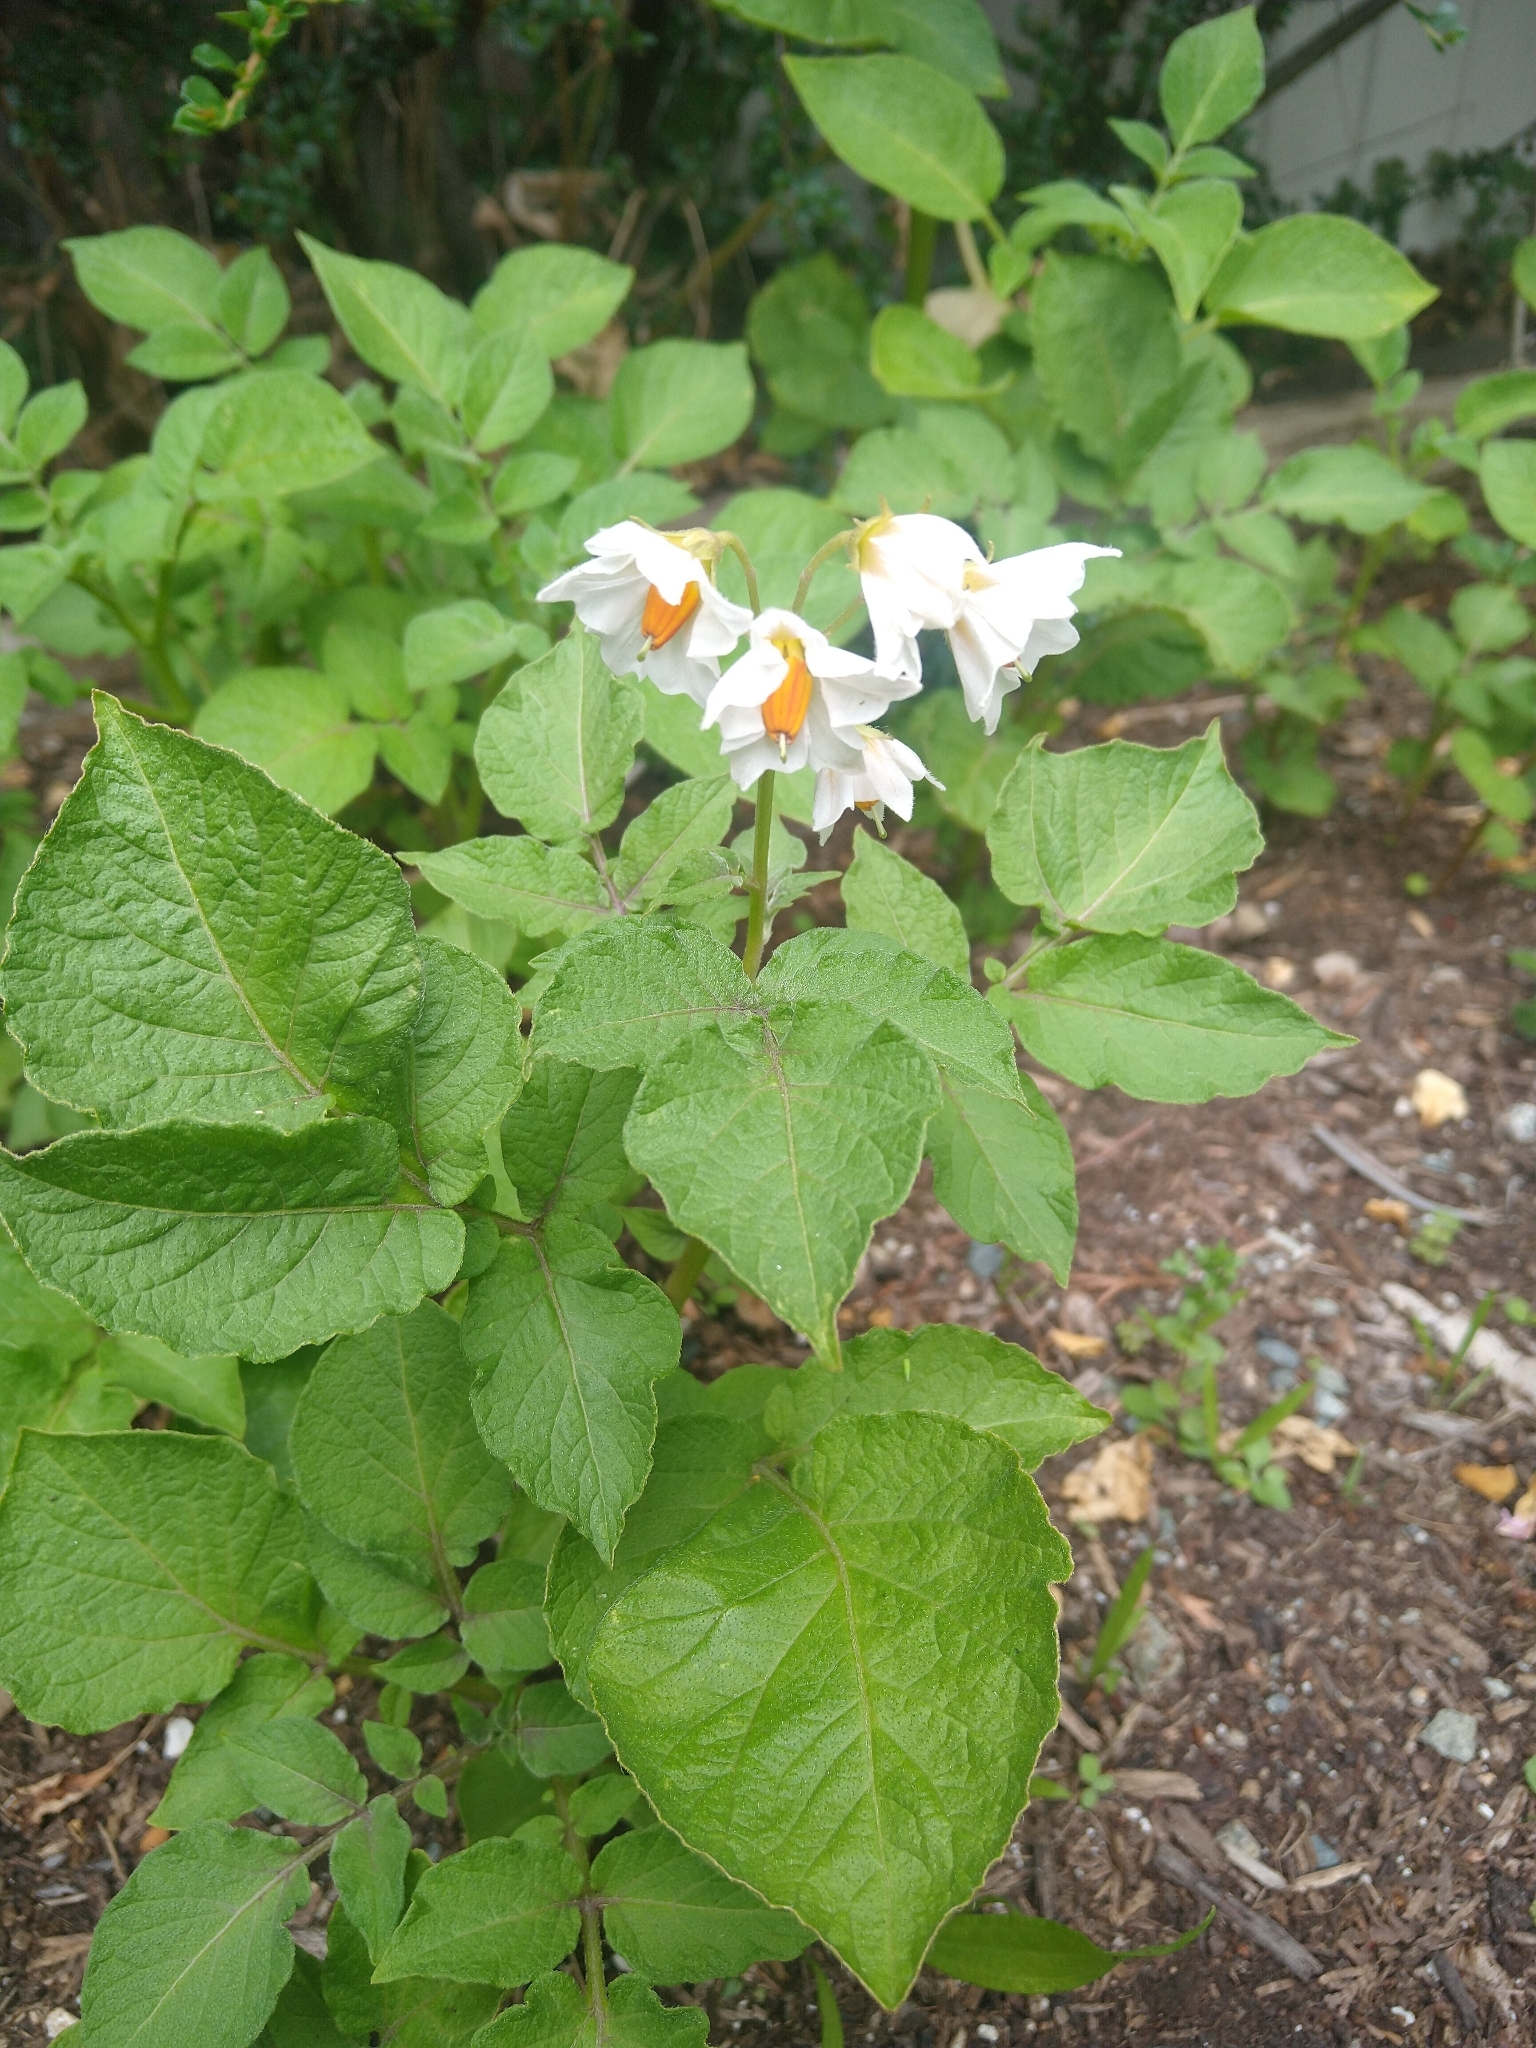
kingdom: Plantae
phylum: Tracheophyta
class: Magnoliopsida
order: Solanales
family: Solanaceae
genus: Solanum
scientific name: Solanum tuberosum
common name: Potato
